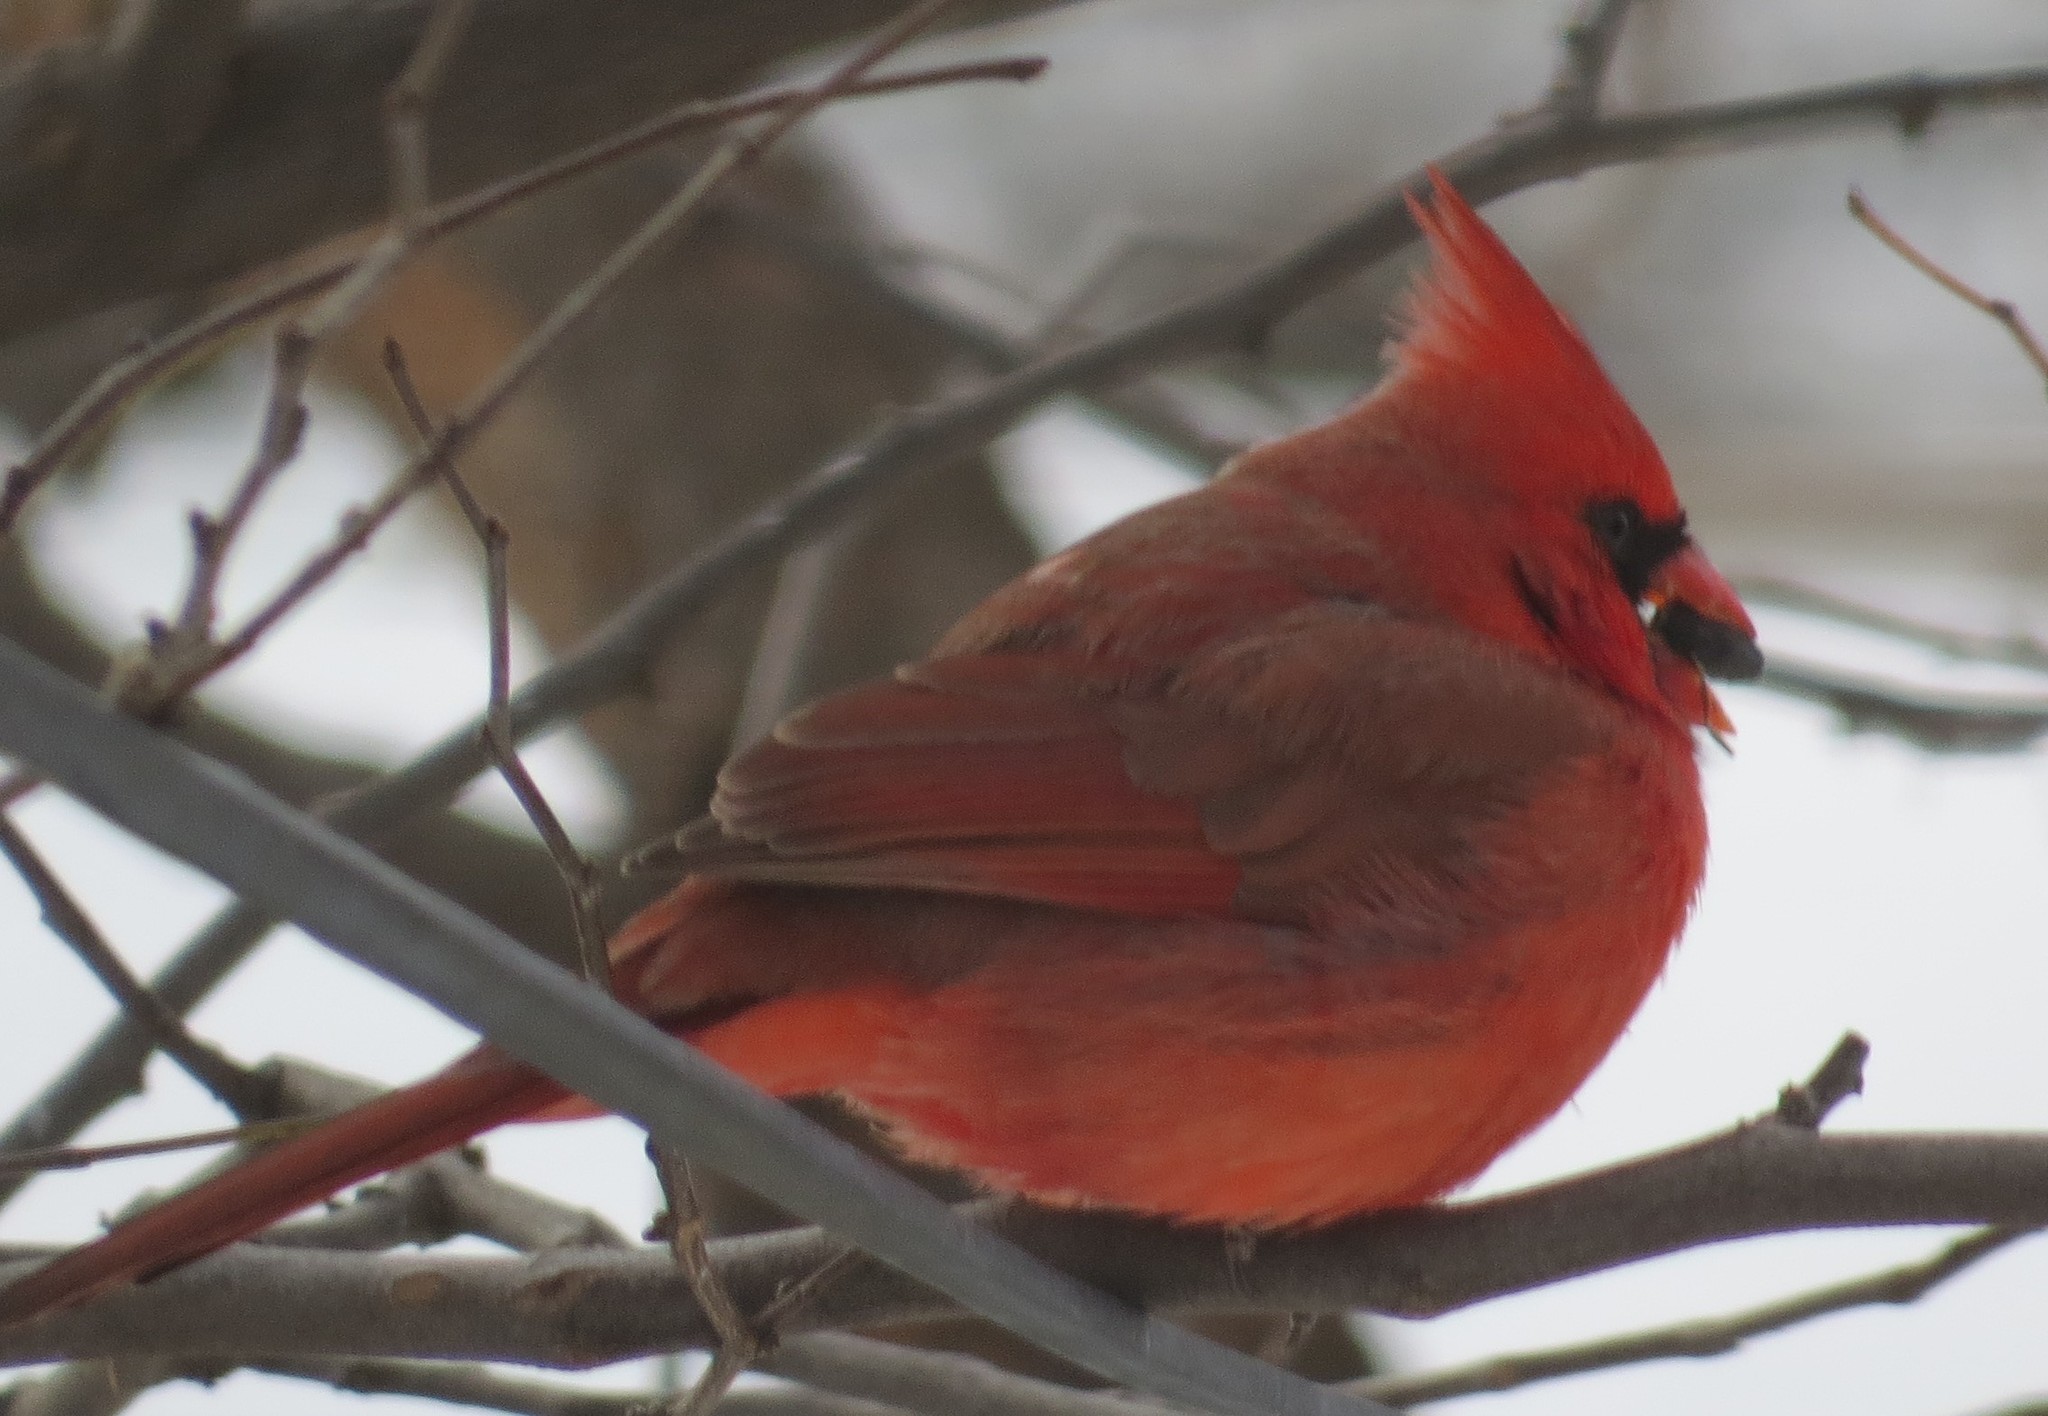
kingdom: Animalia
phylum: Chordata
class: Aves
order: Passeriformes
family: Cardinalidae
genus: Cardinalis
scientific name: Cardinalis cardinalis
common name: Northern cardinal
